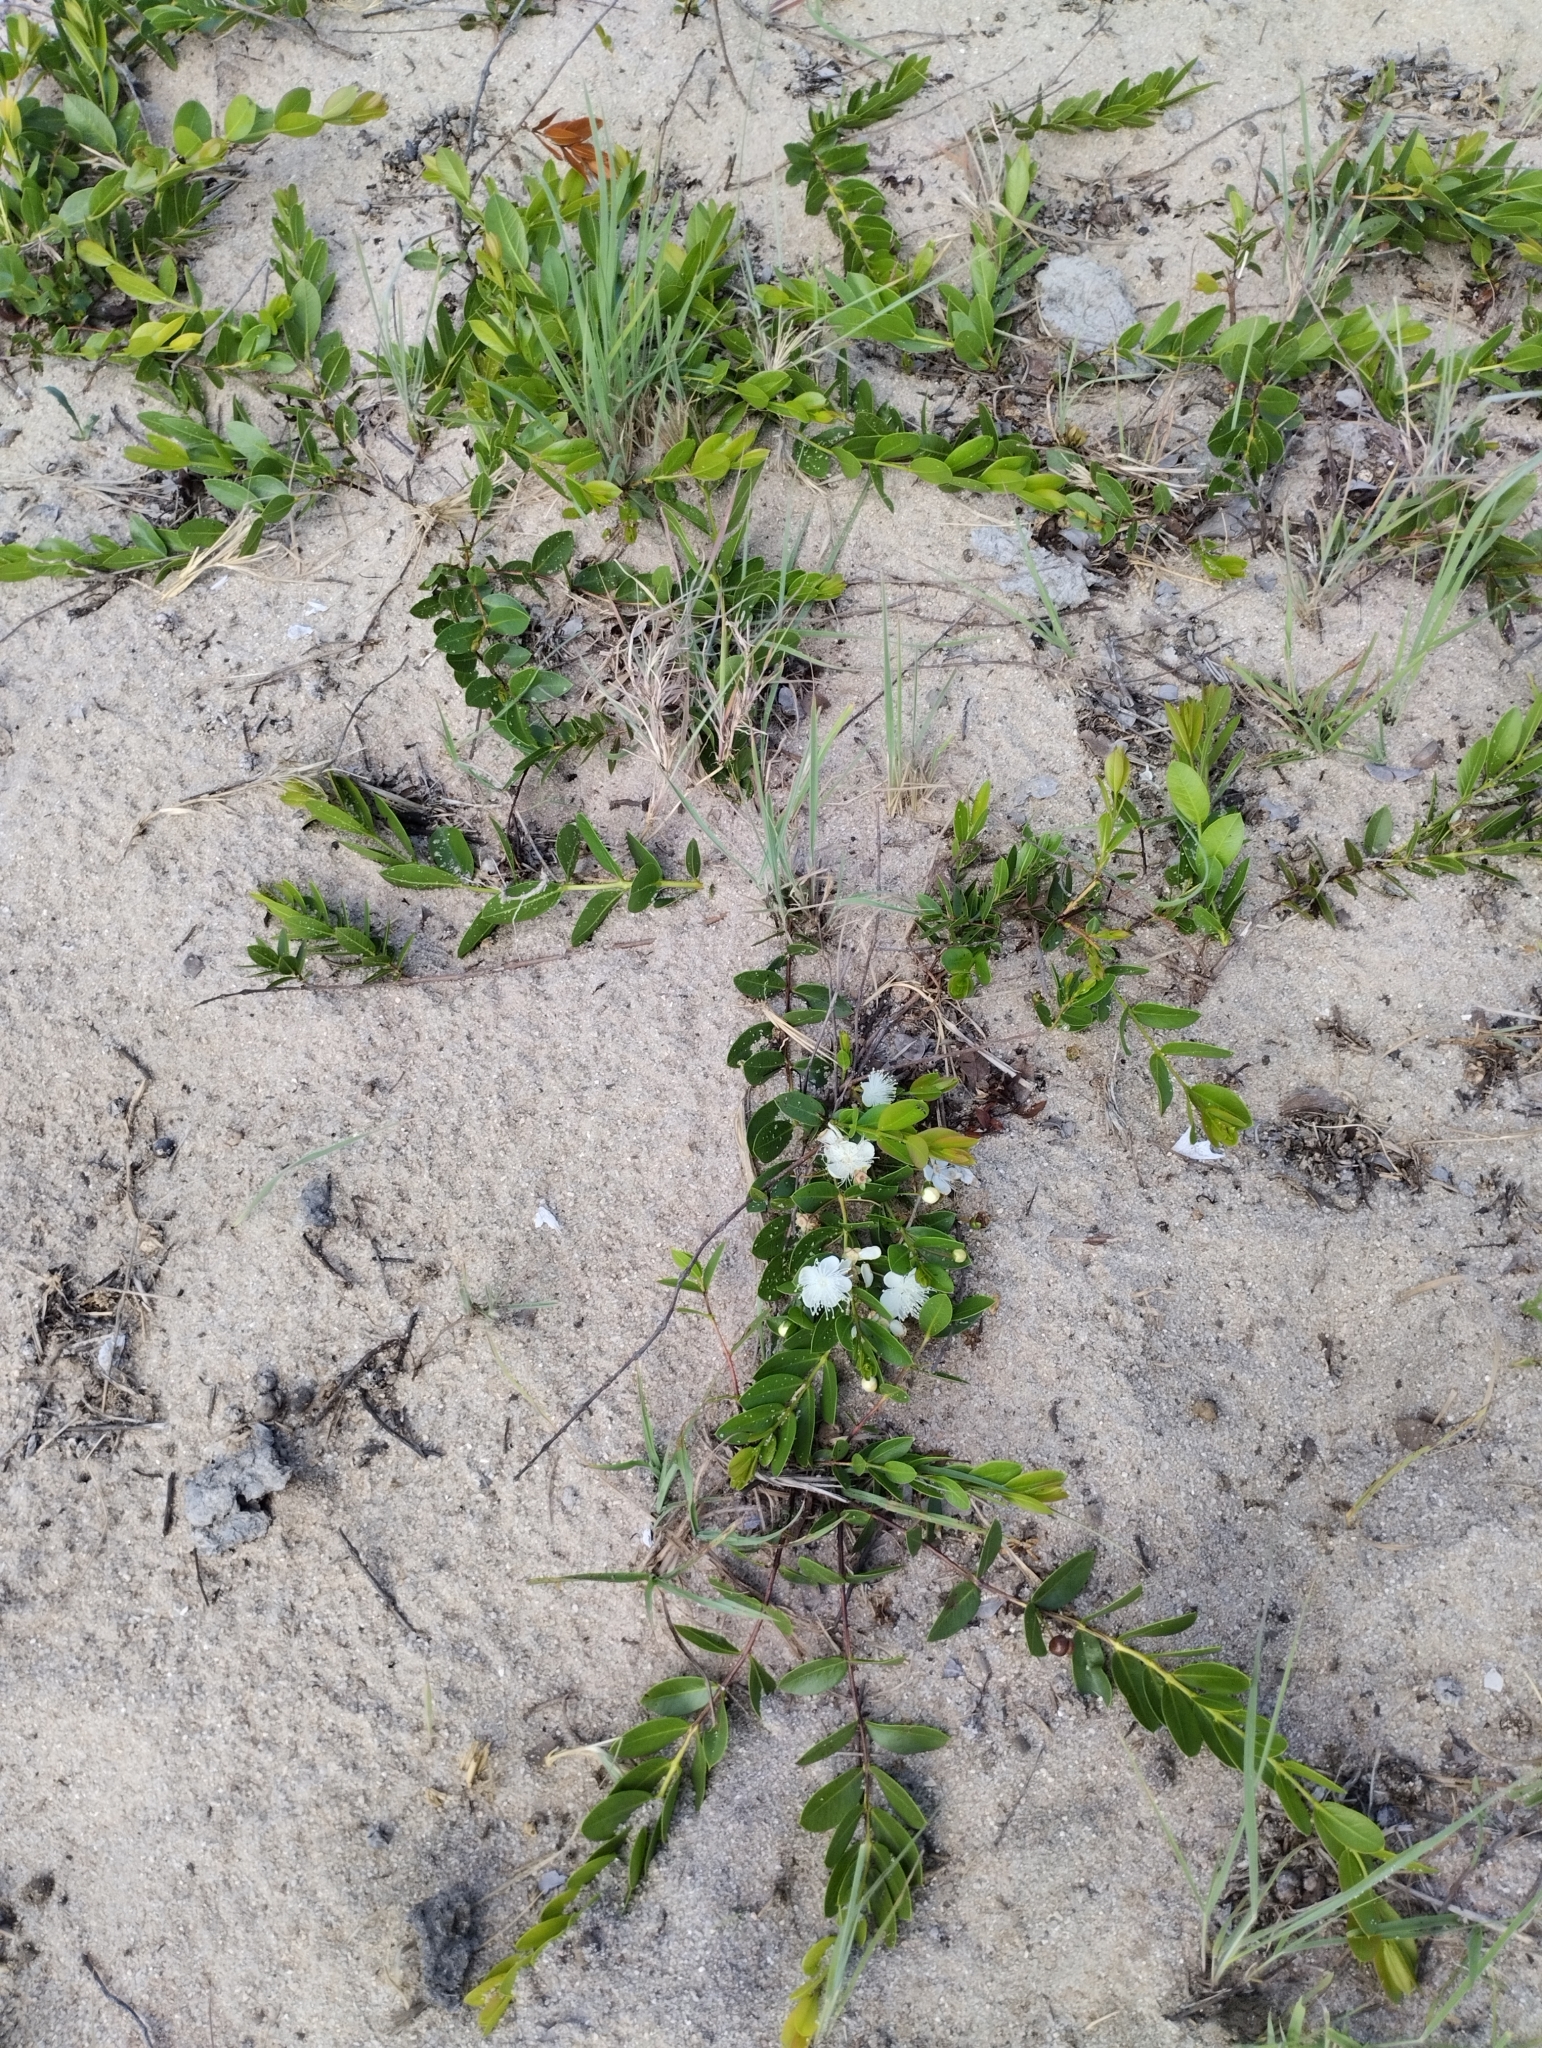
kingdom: Plantae
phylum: Tracheophyta
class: Magnoliopsida
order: Myrtales
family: Myrtaceae
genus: Psidium
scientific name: Psidium salutare
